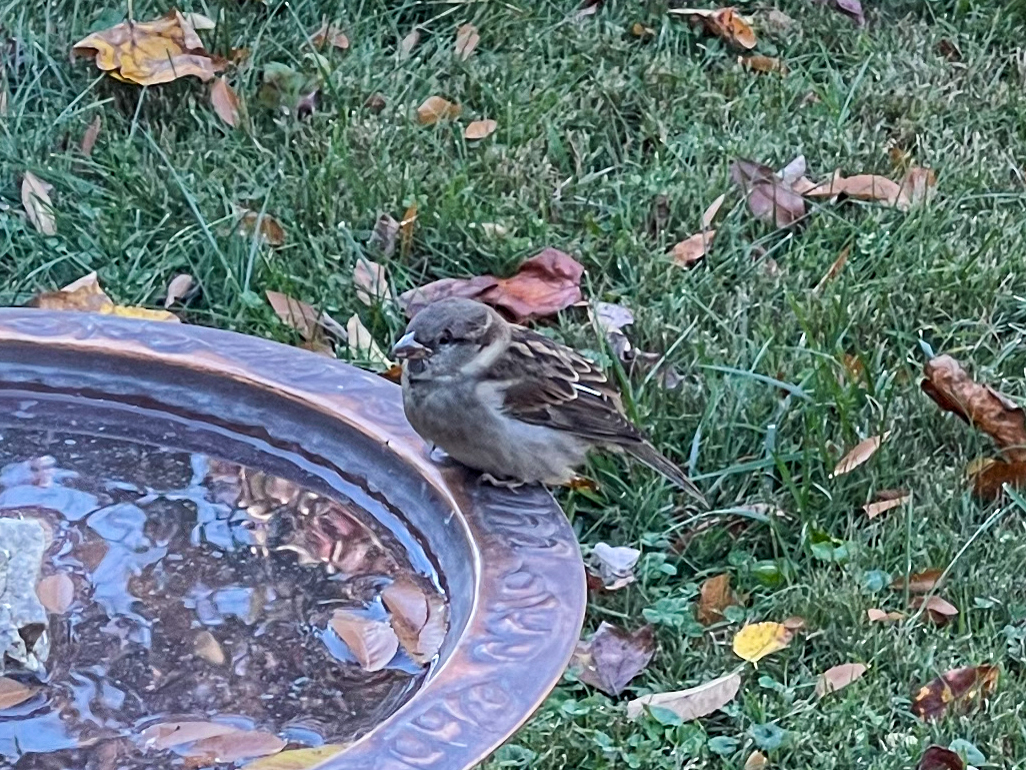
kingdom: Animalia
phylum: Chordata
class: Aves
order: Passeriformes
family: Passeridae
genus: Passer
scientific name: Passer domesticus
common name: House sparrow
